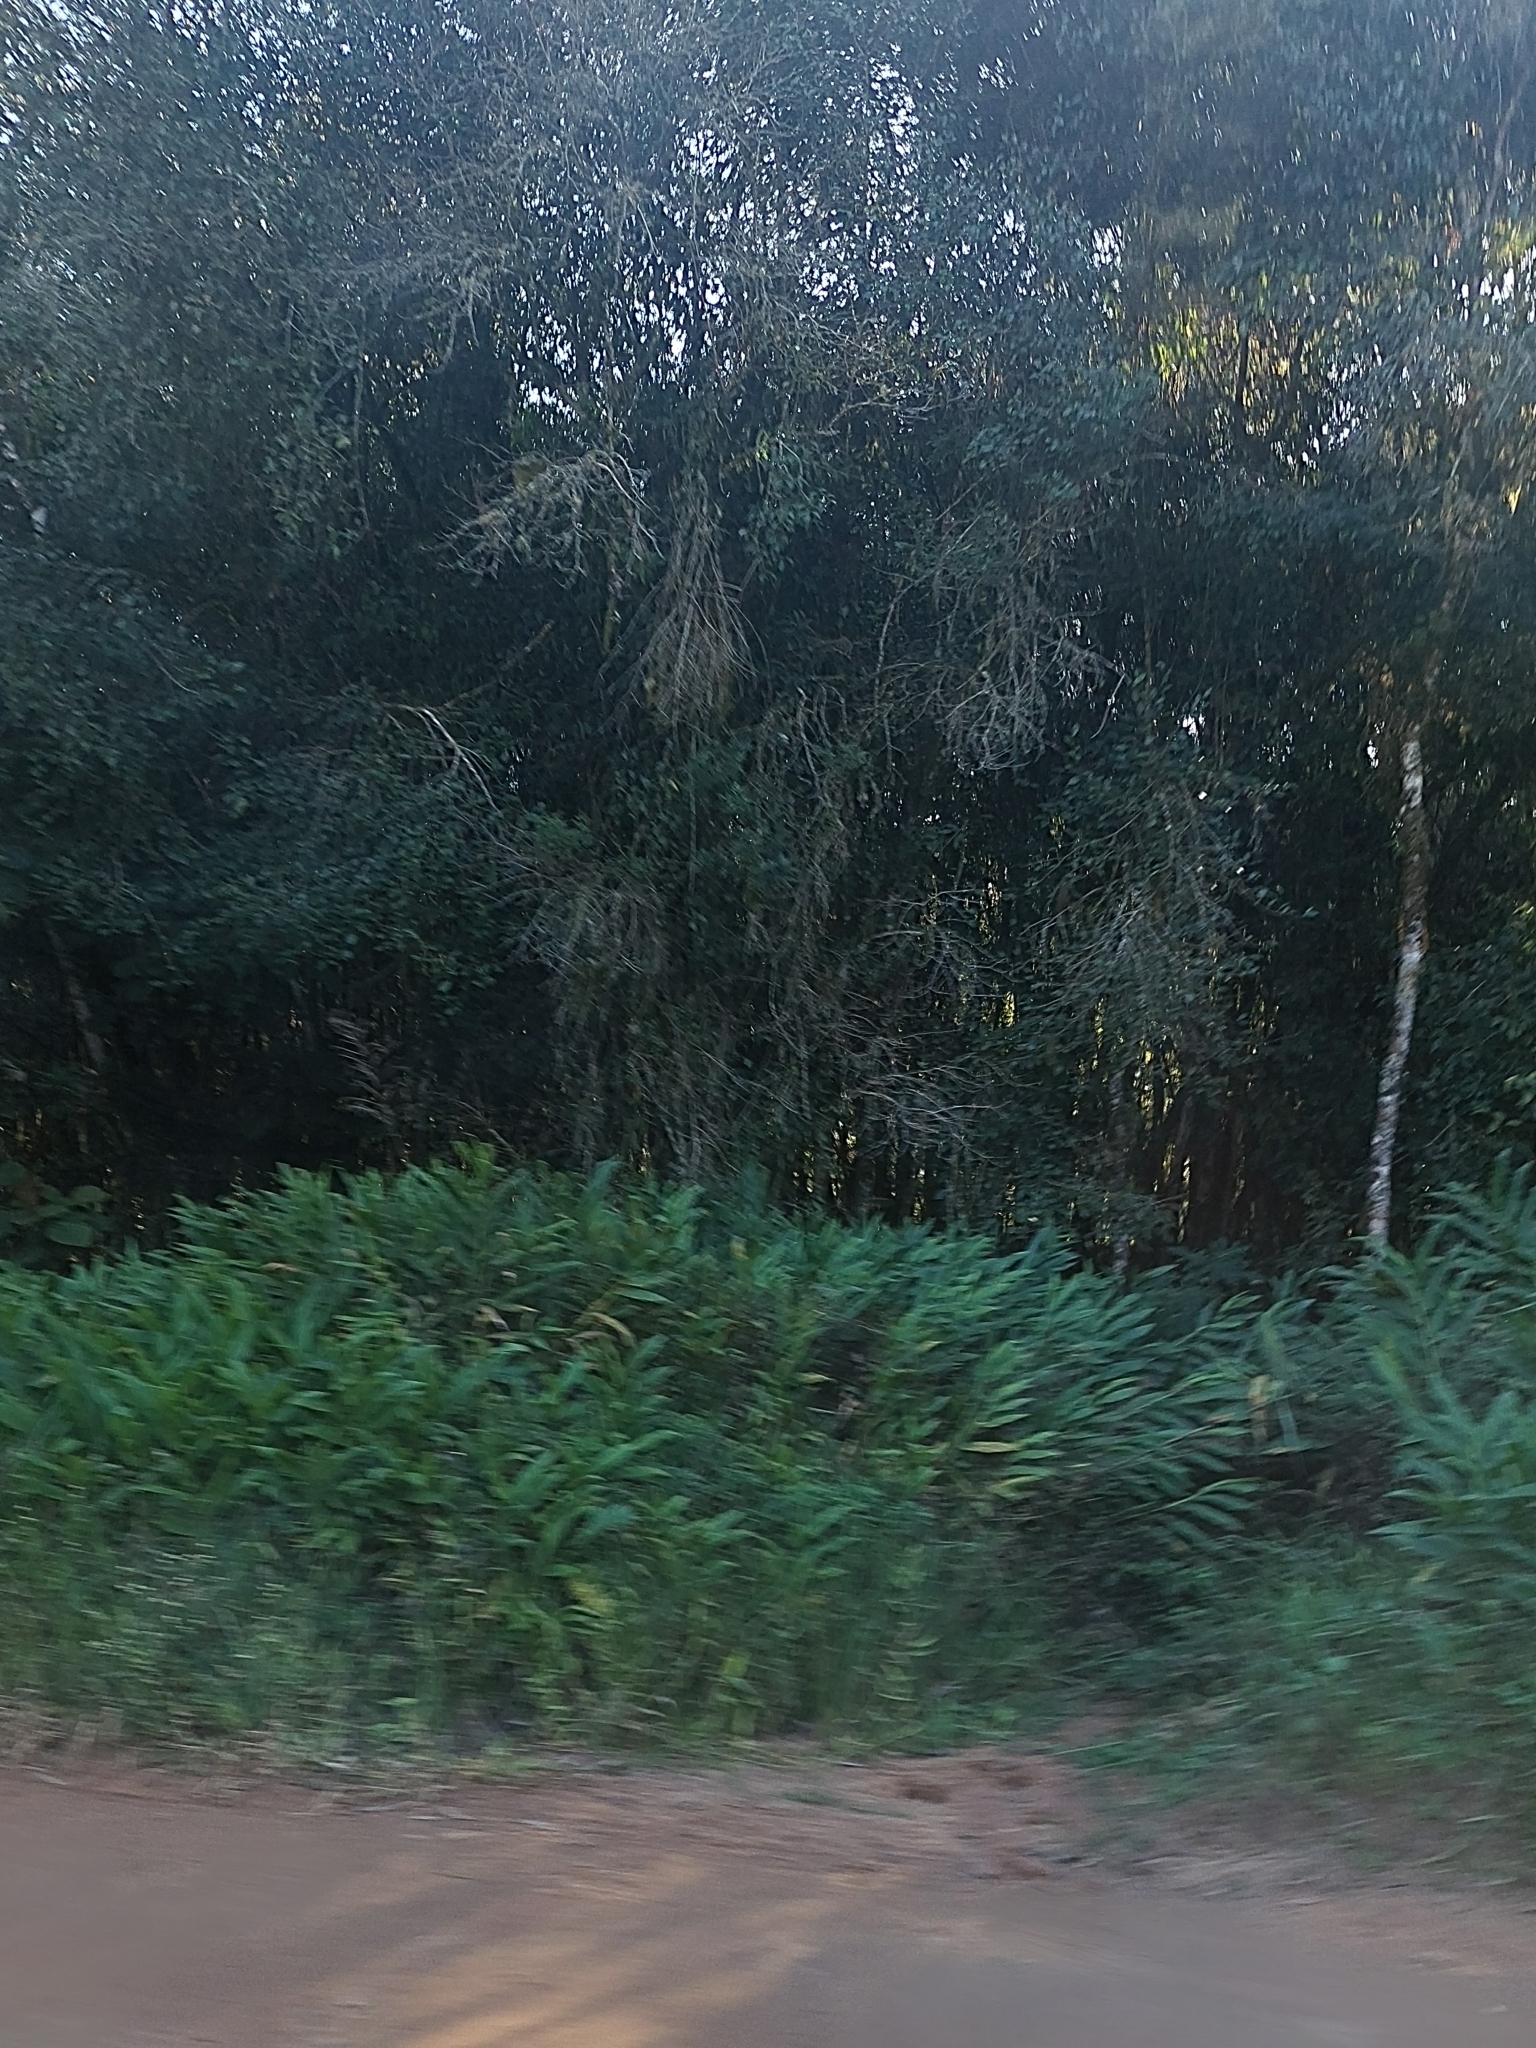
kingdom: Plantae
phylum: Tracheophyta
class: Liliopsida
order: Zingiberales
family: Zingiberaceae
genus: Hedychium
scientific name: Hedychium coronarium
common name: White garland-lily
